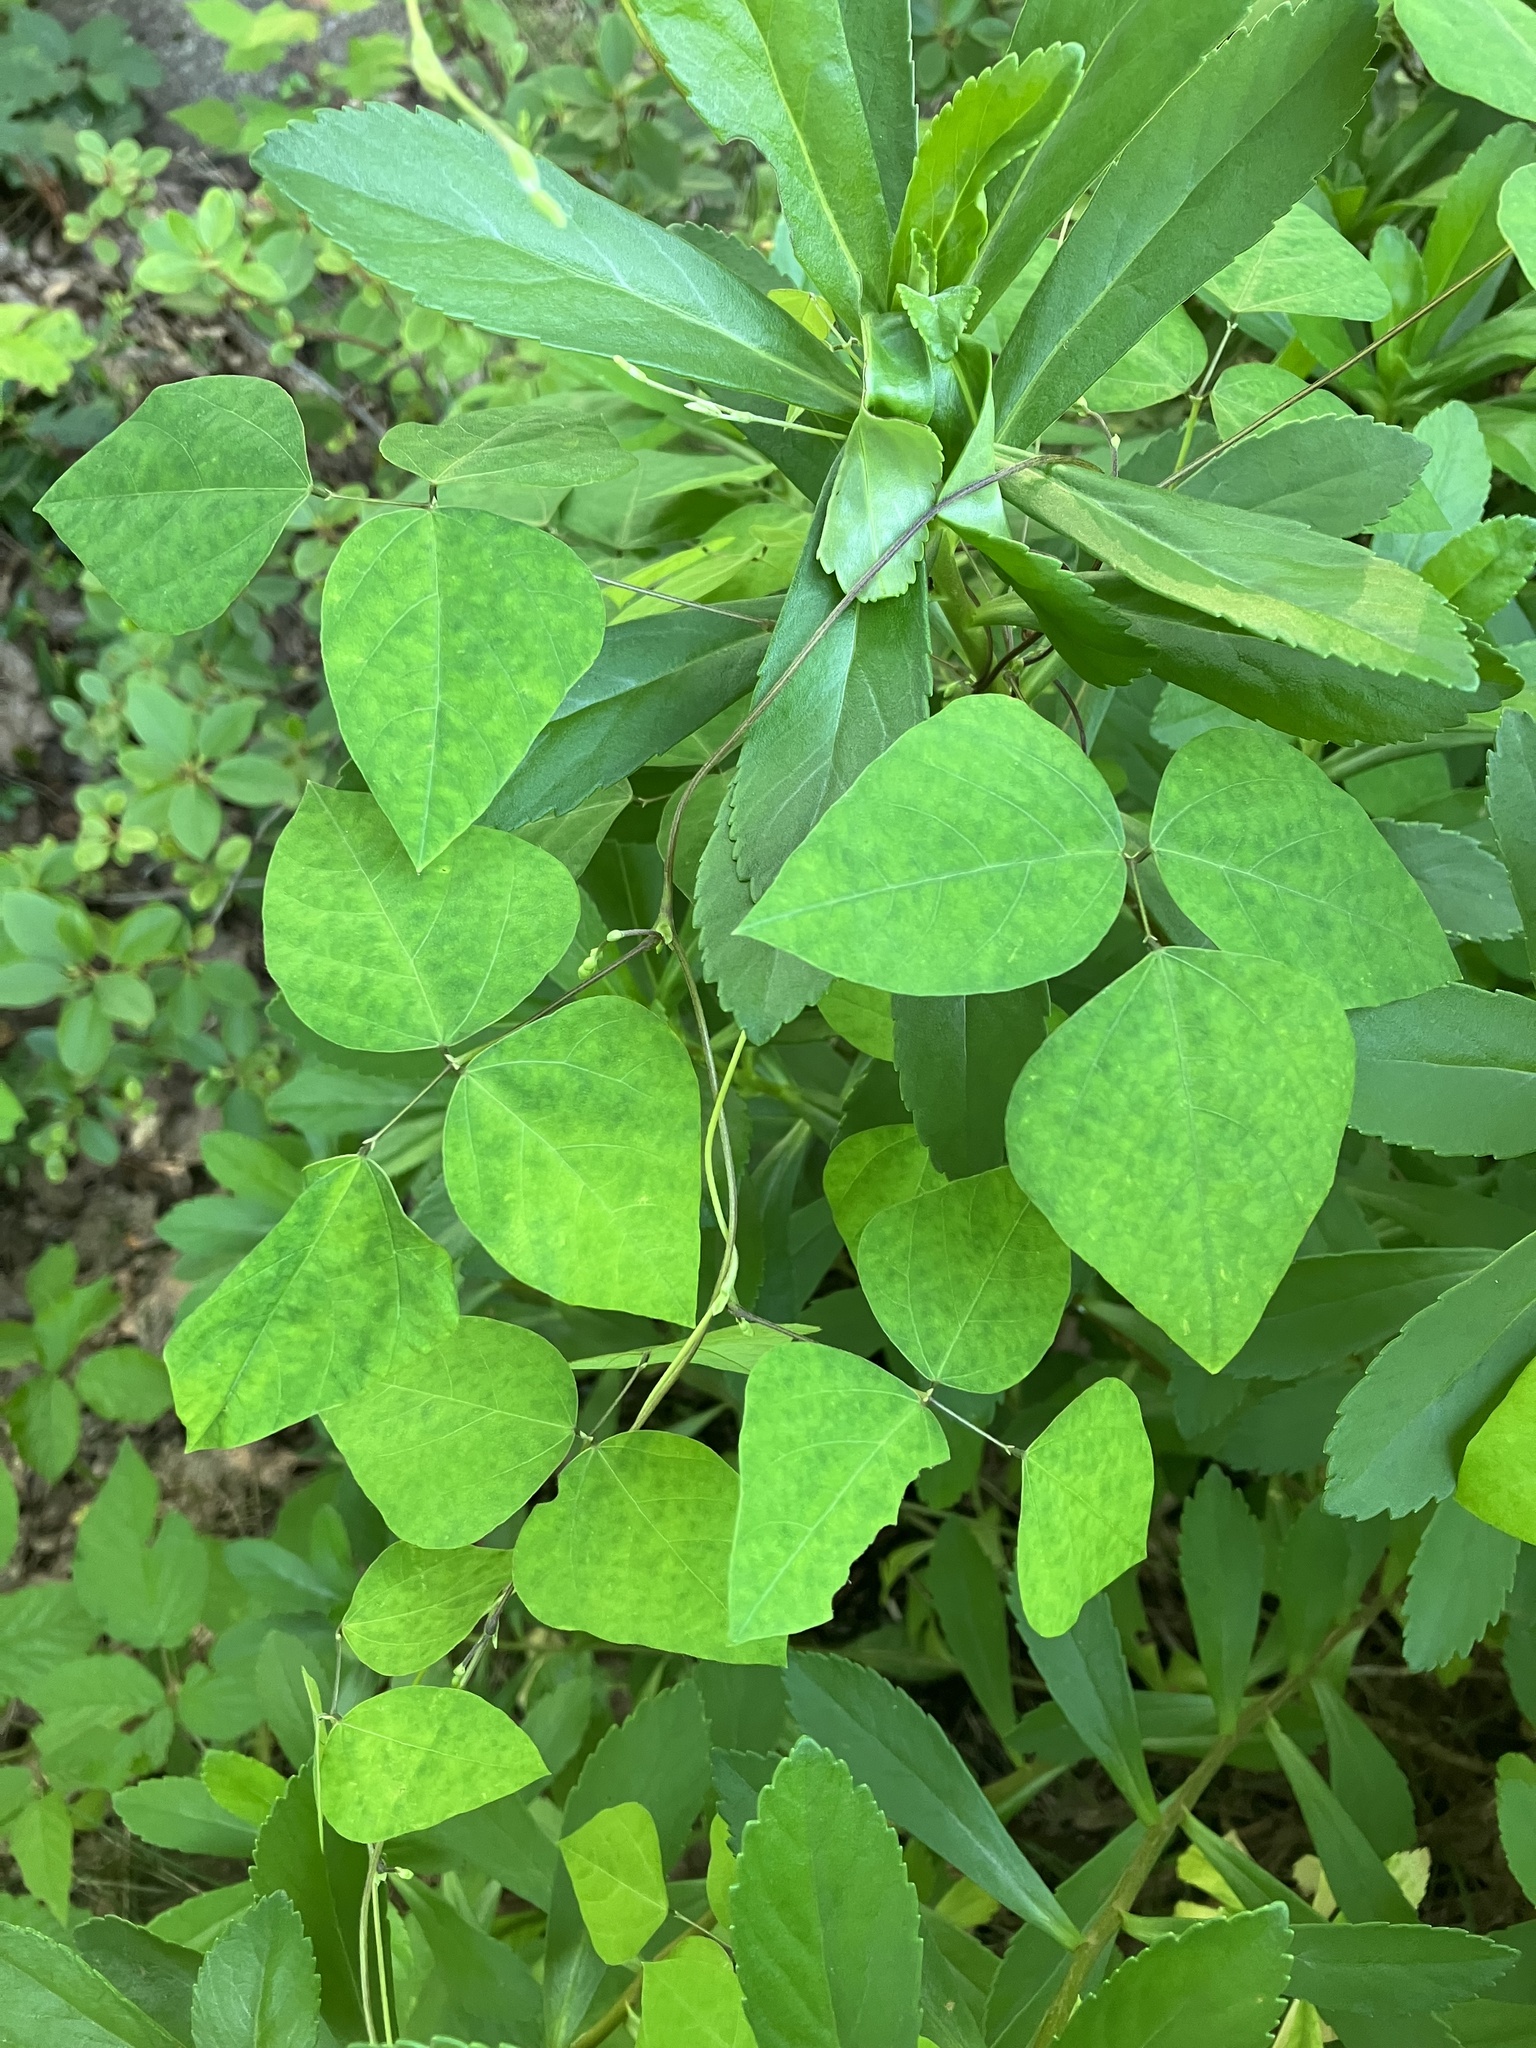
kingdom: Plantae
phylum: Tracheophyta
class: Magnoliopsida
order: Fabales
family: Fabaceae
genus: Amphicarpaea
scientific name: Amphicarpaea bracteata
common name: American hog peanut
